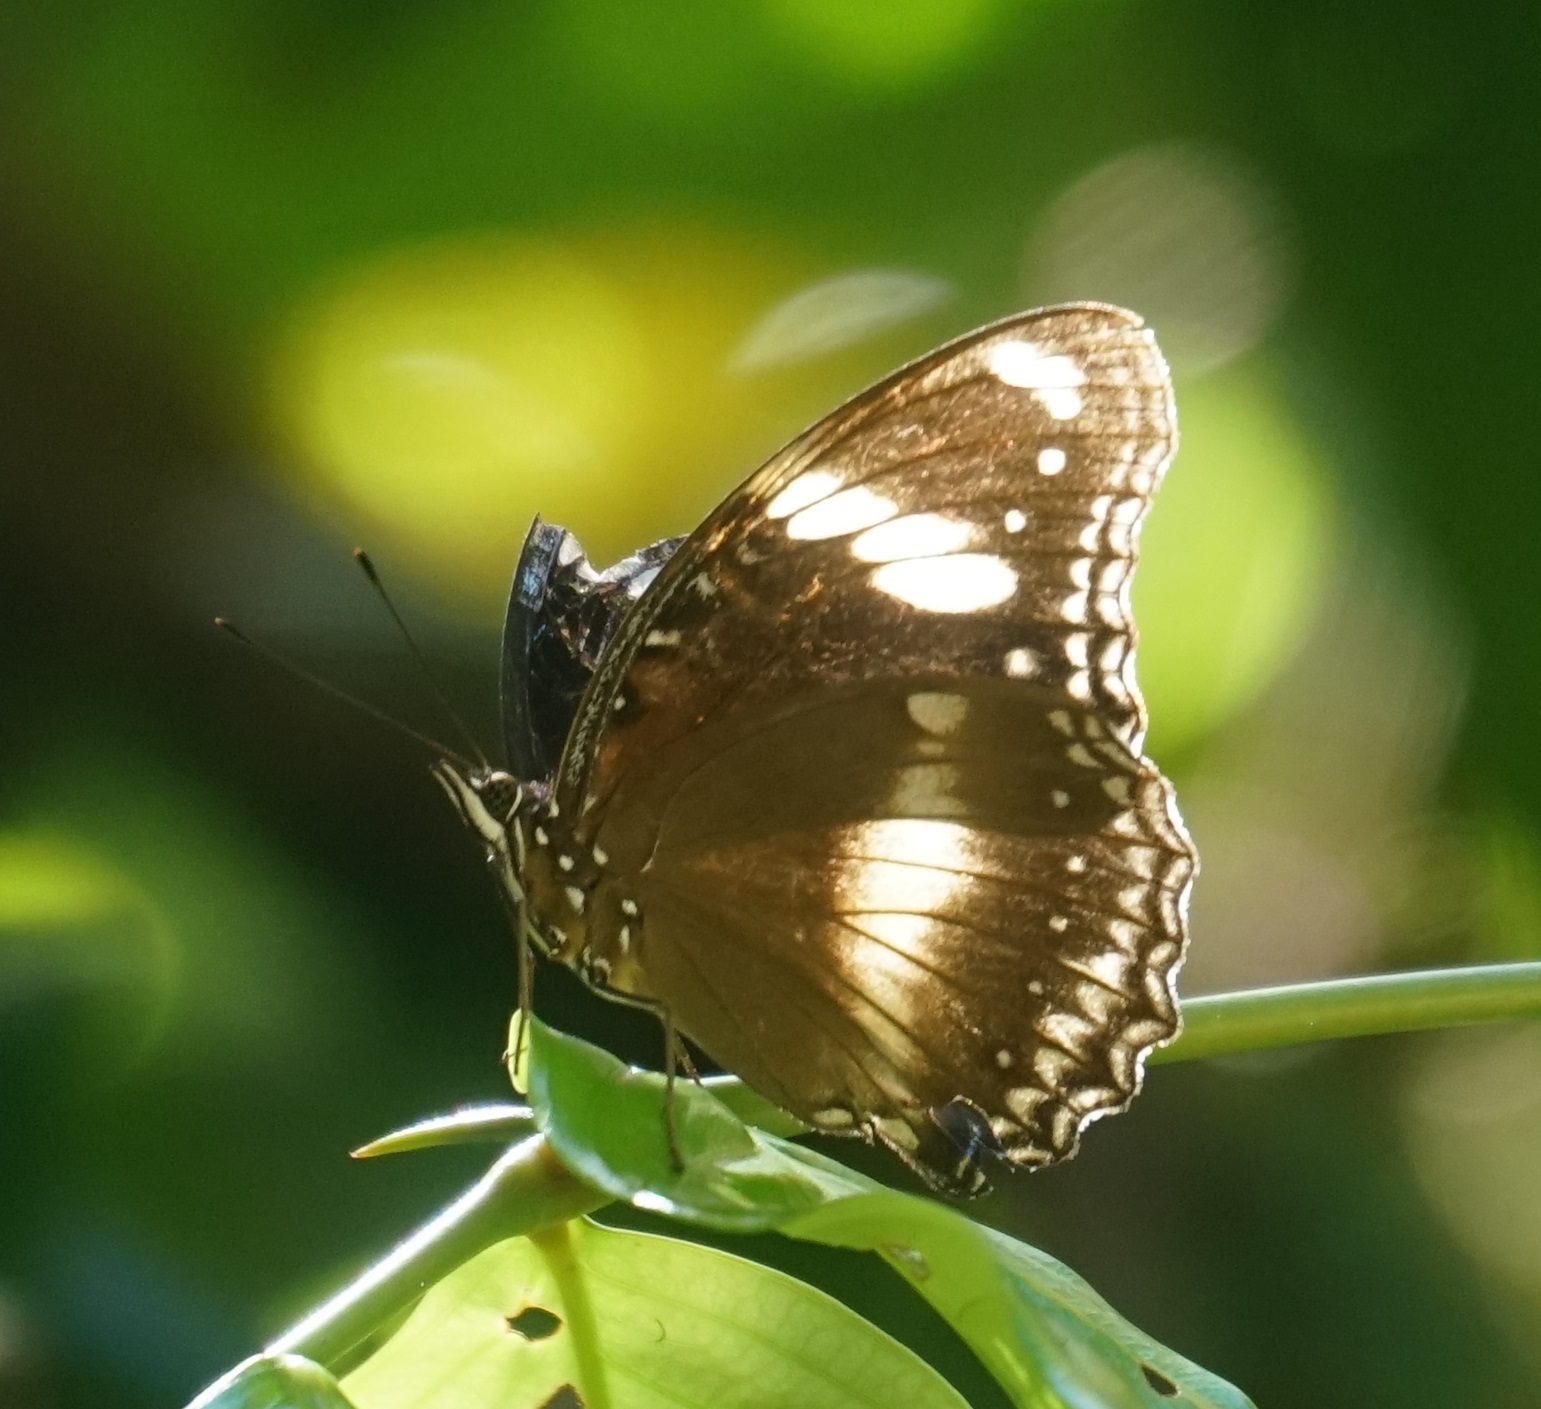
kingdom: Animalia
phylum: Arthropoda
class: Insecta
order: Lepidoptera
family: Nymphalidae
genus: Hypolimnas
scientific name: Hypolimnas bolina
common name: Great eggfly
